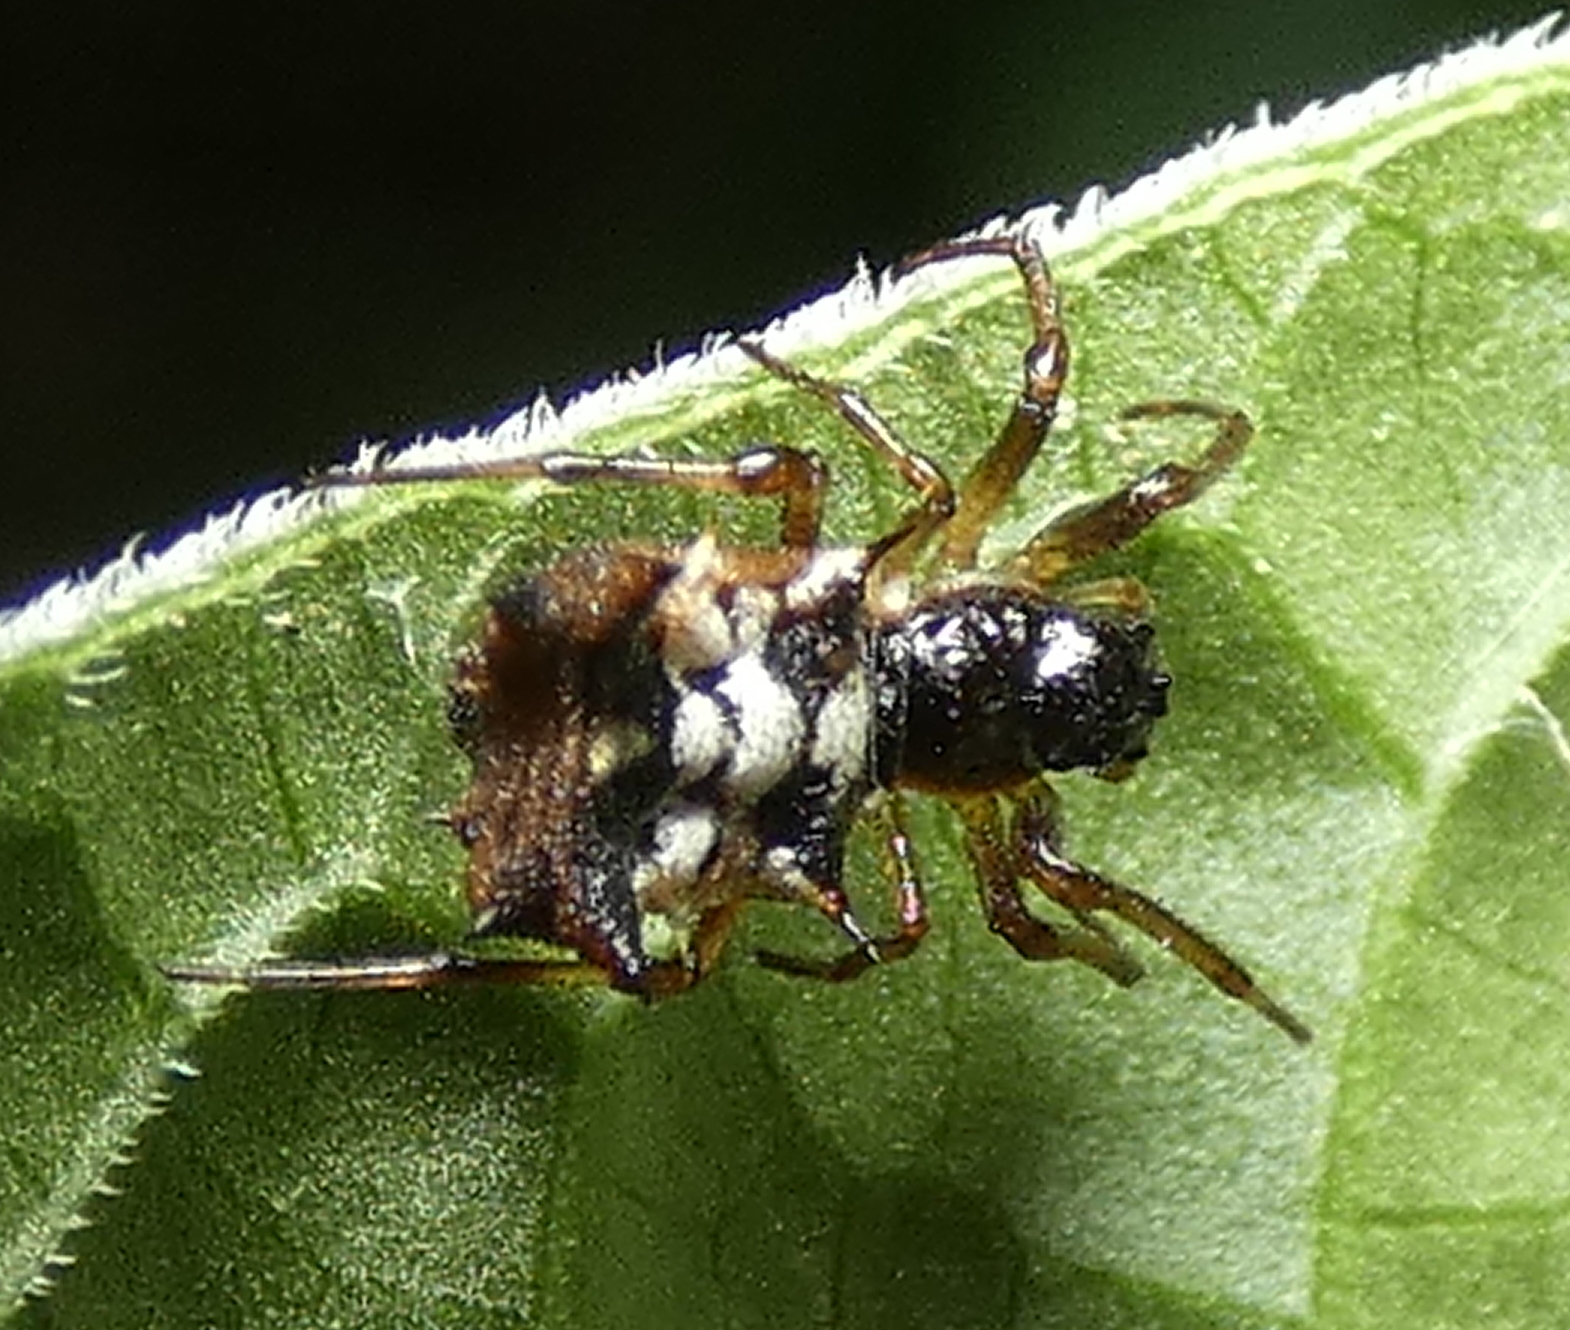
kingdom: Animalia
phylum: Arthropoda
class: Arachnida
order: Araneae
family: Araneidae
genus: Micrathena
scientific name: Micrathena picta
